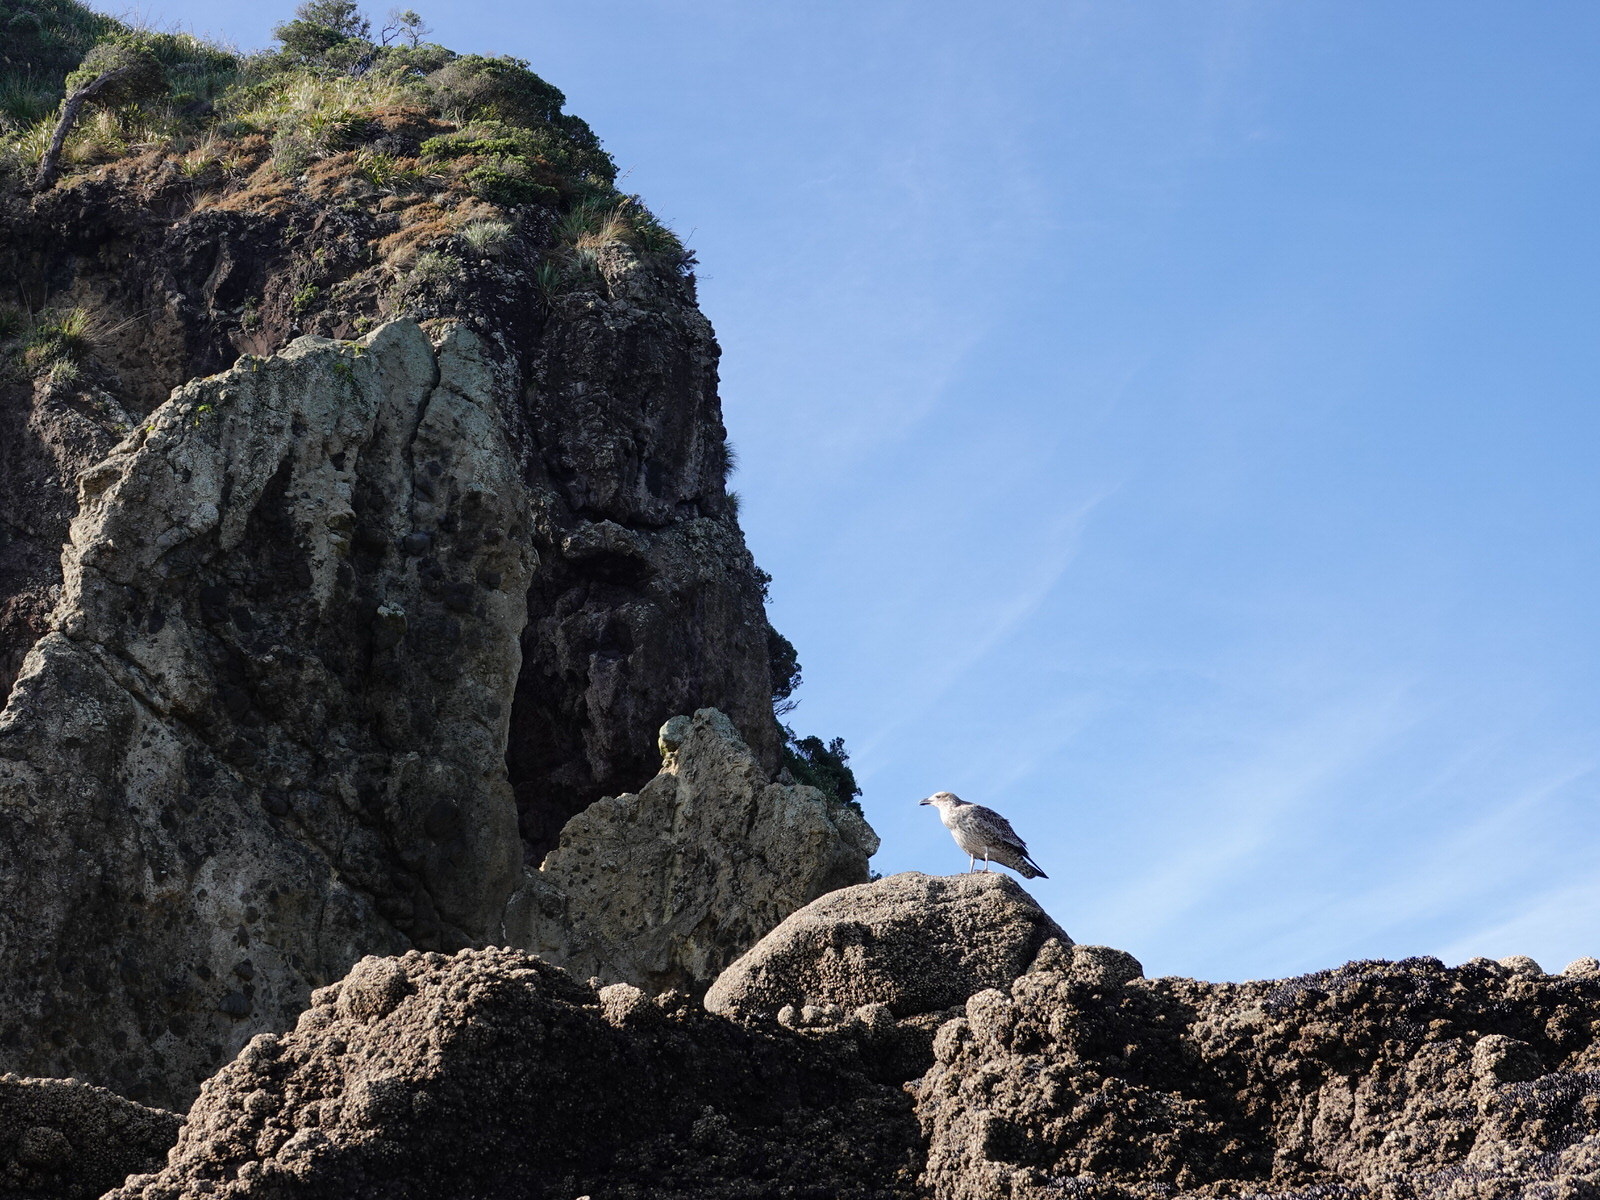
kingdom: Animalia
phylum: Chordata
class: Aves
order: Charadriiformes
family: Laridae
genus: Larus
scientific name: Larus dominicanus
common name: Kelp gull
